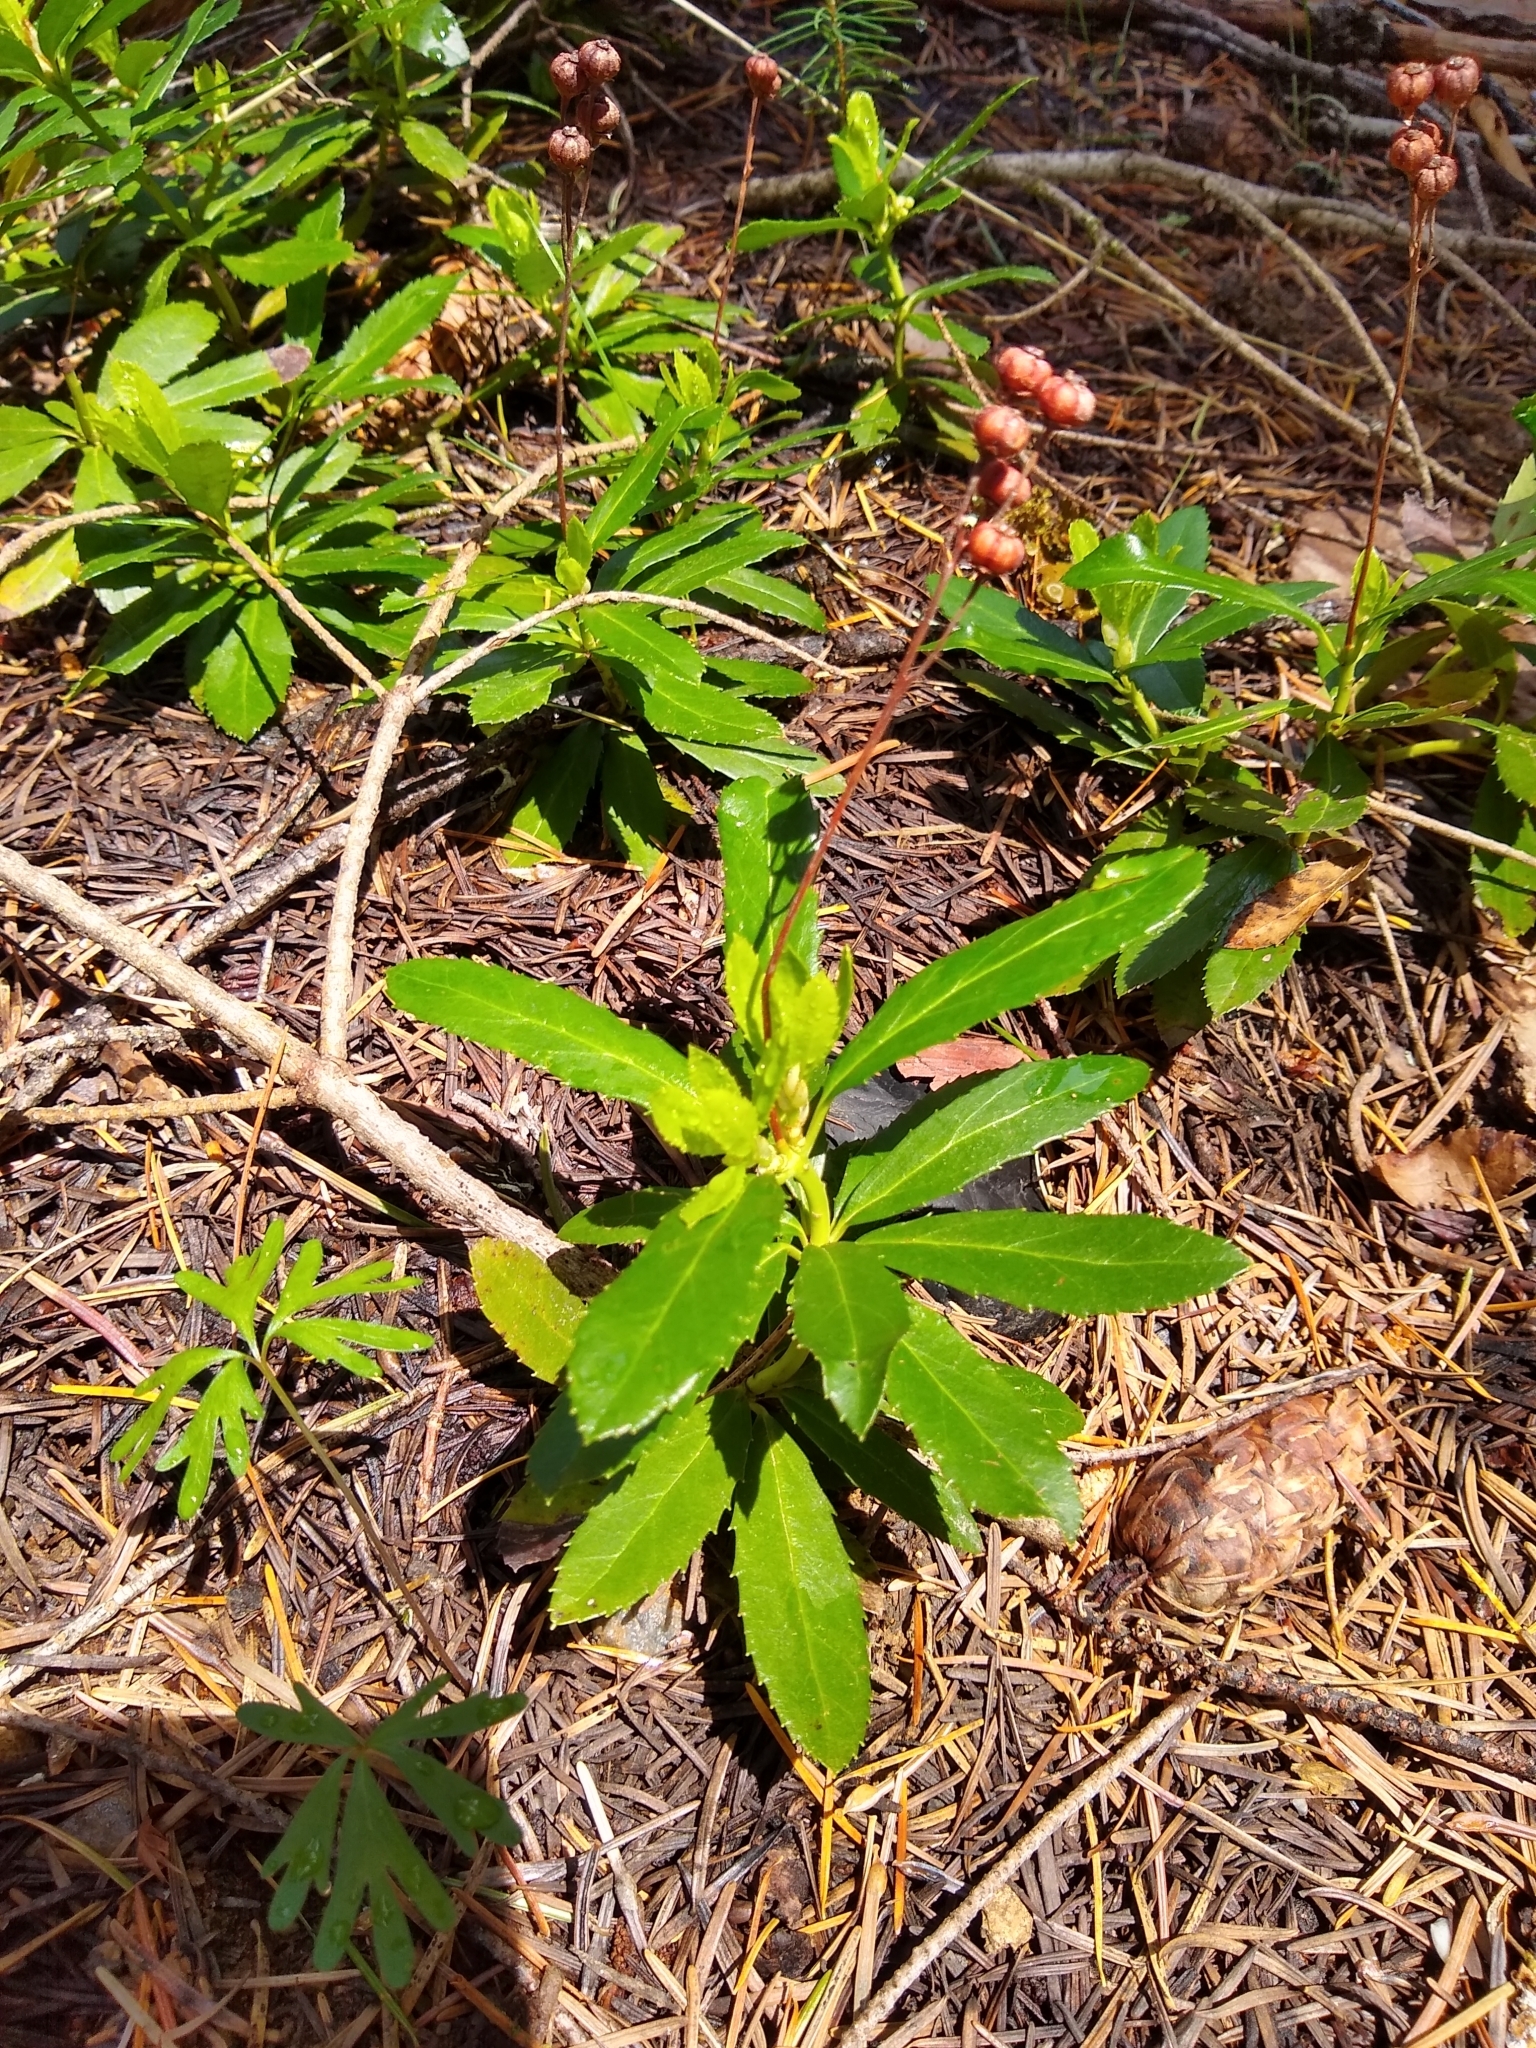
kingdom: Plantae
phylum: Tracheophyta
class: Magnoliopsida
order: Ericales
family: Ericaceae
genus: Chimaphila
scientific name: Chimaphila umbellata
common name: Pipsissewa
